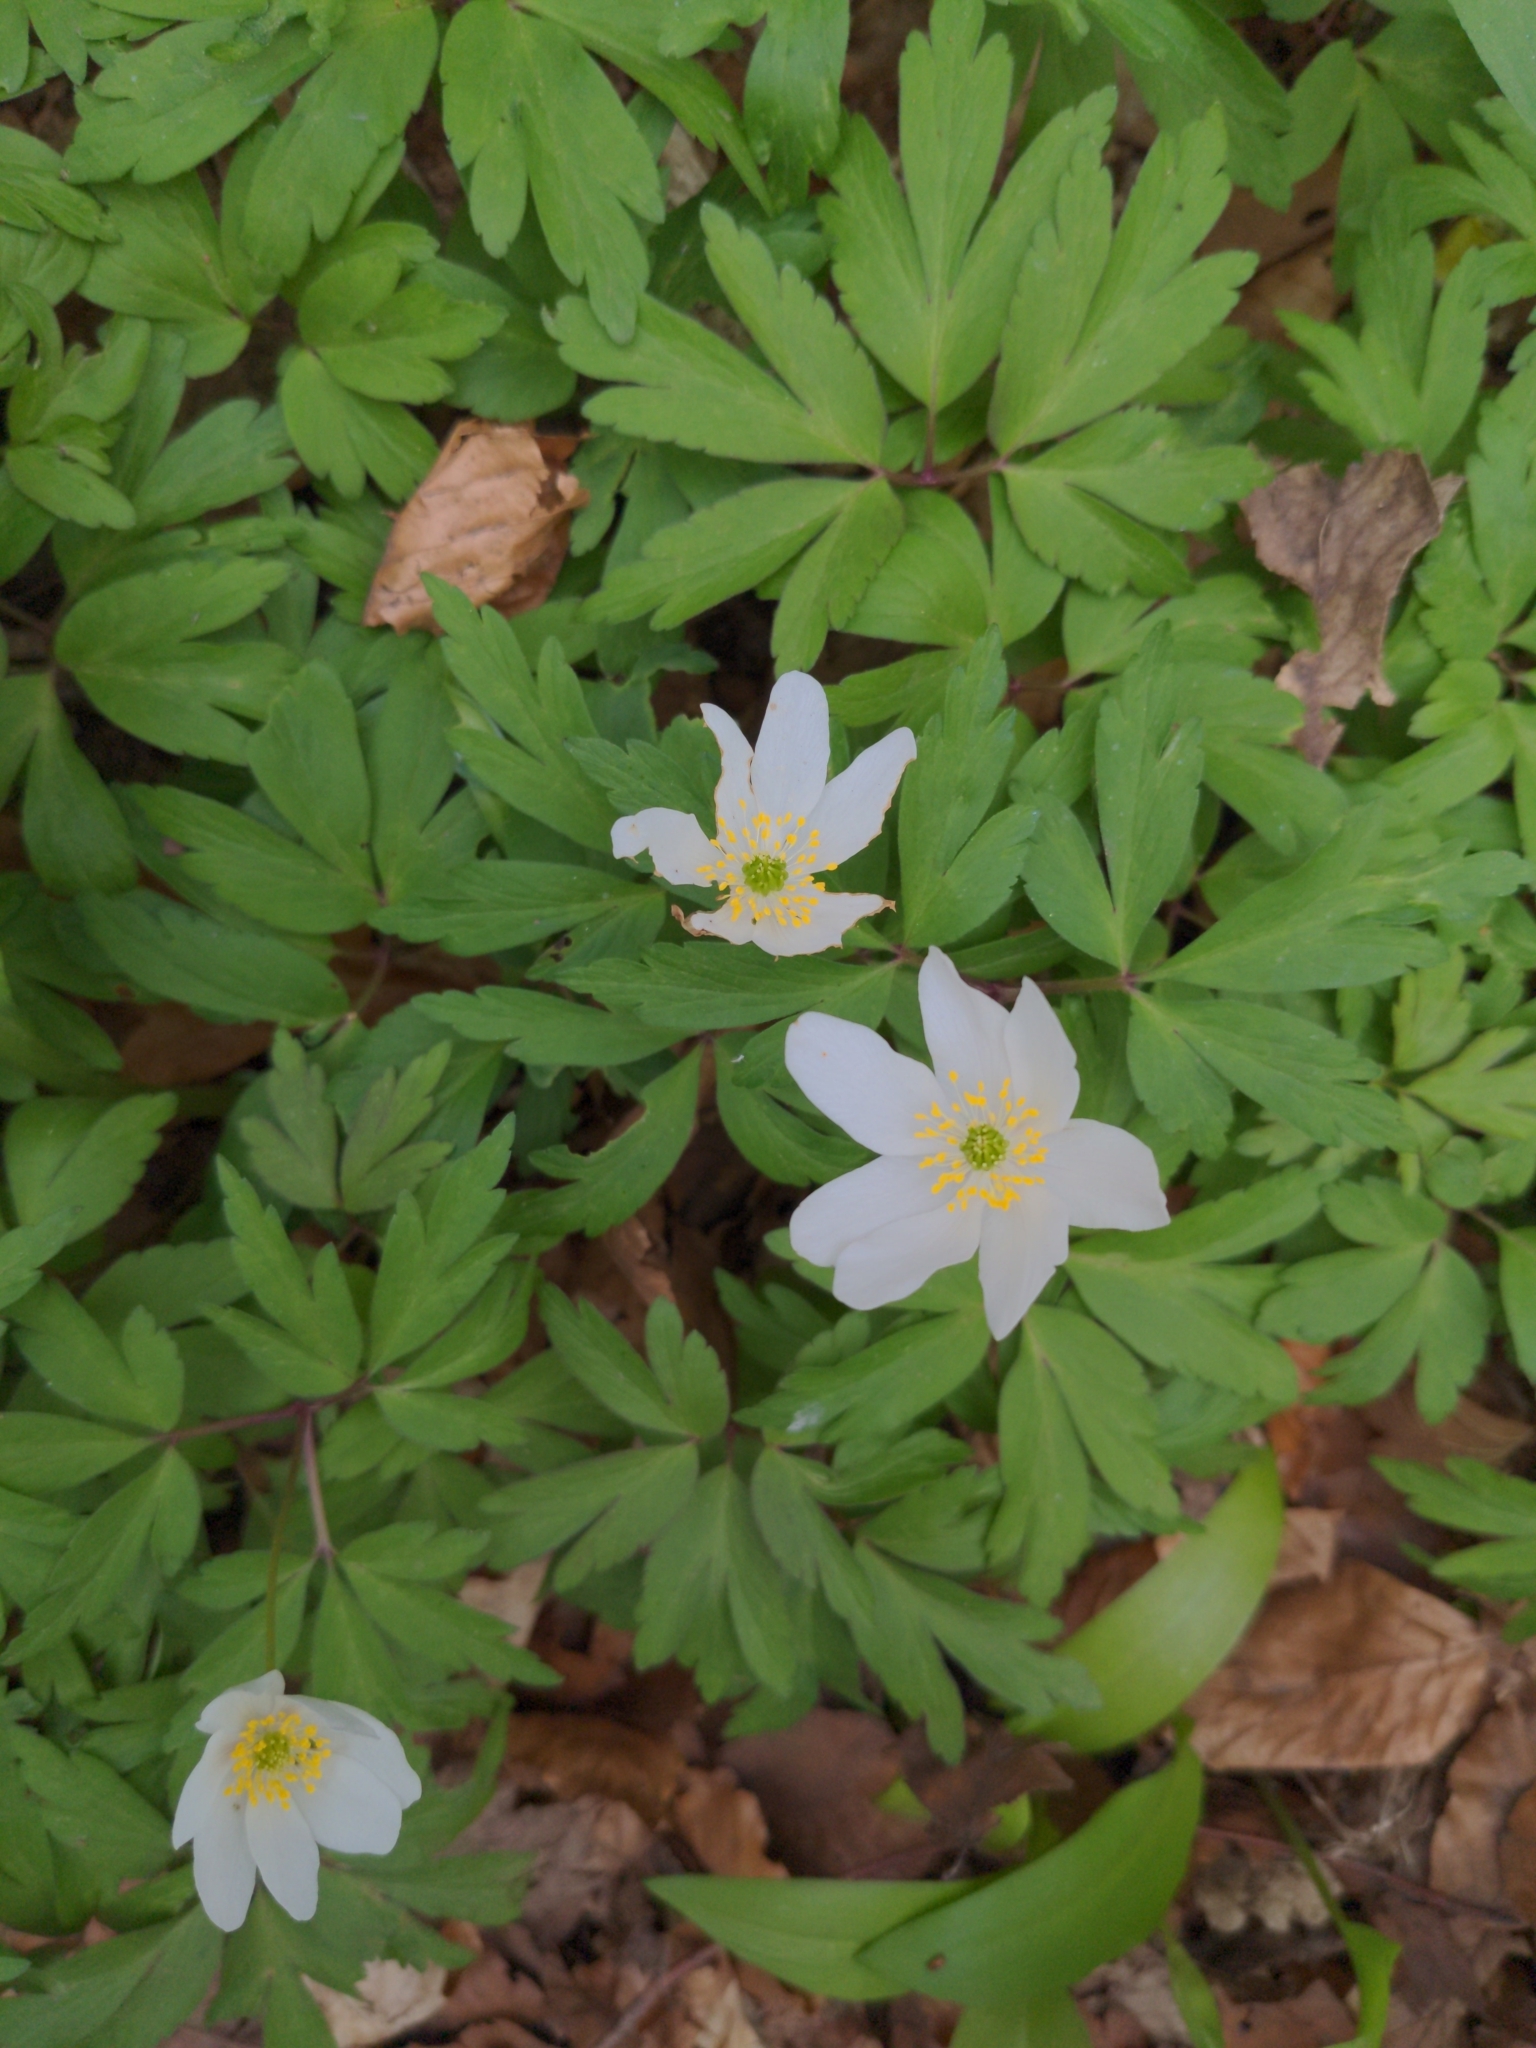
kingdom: Plantae
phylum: Tracheophyta
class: Magnoliopsida
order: Ranunculales
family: Ranunculaceae
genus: Anemone
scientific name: Anemone nemorosa
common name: Wood anemone
